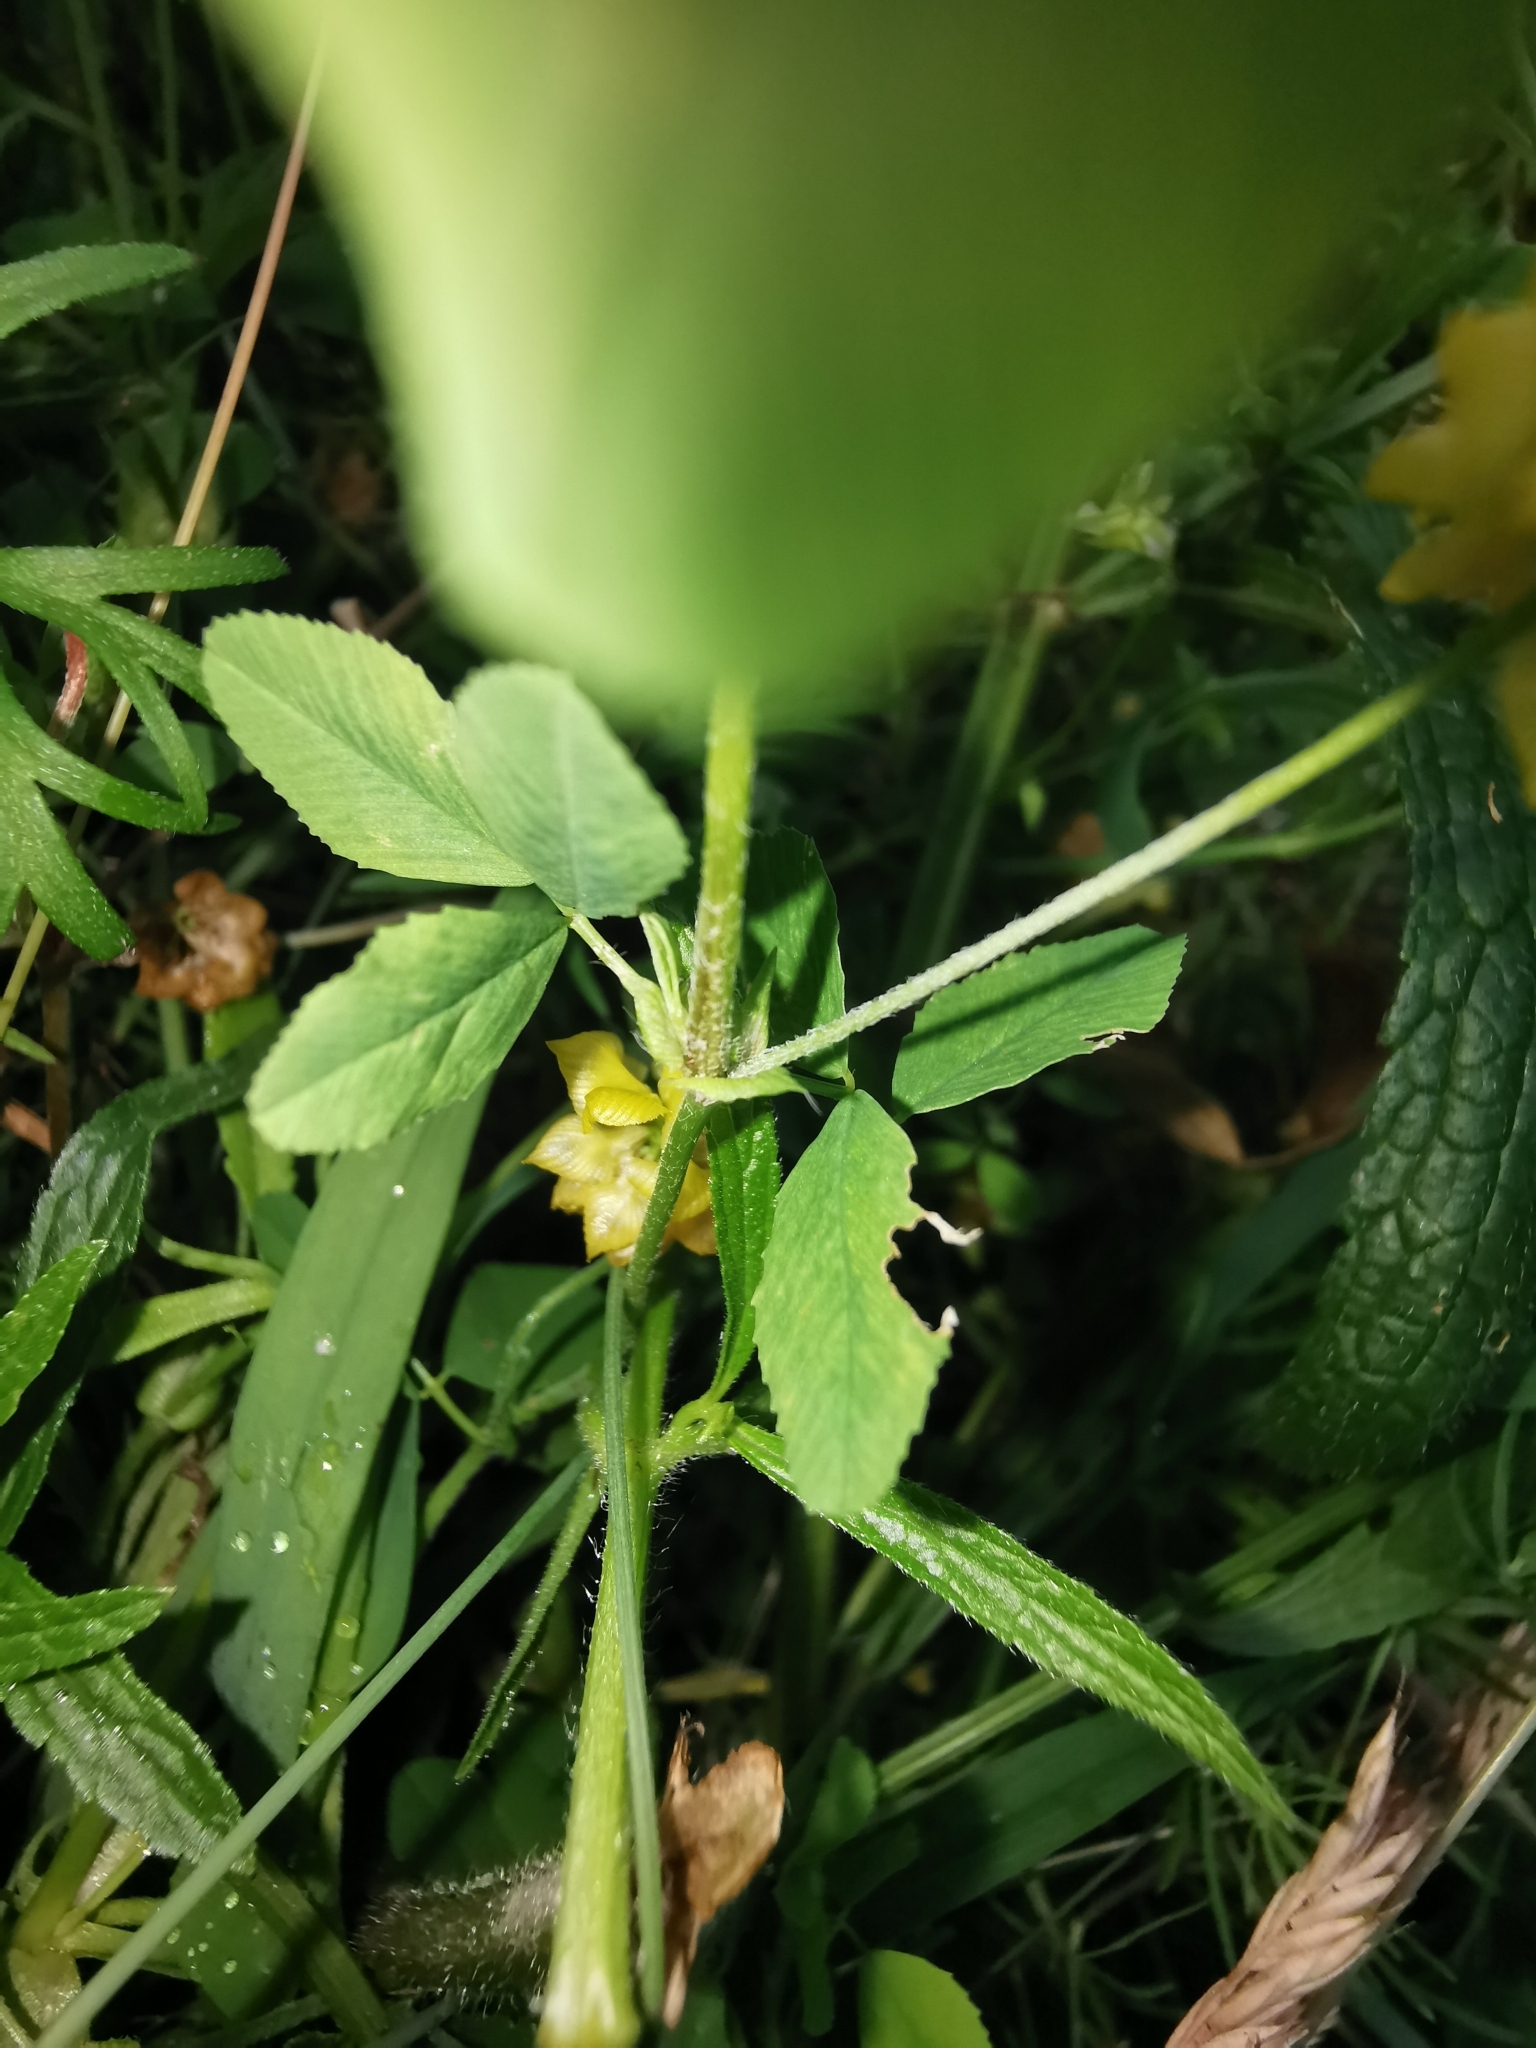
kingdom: Plantae
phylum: Tracheophyta
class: Magnoliopsida
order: Fabales
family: Fabaceae
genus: Trifolium
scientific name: Trifolium campestre
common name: Field clover
